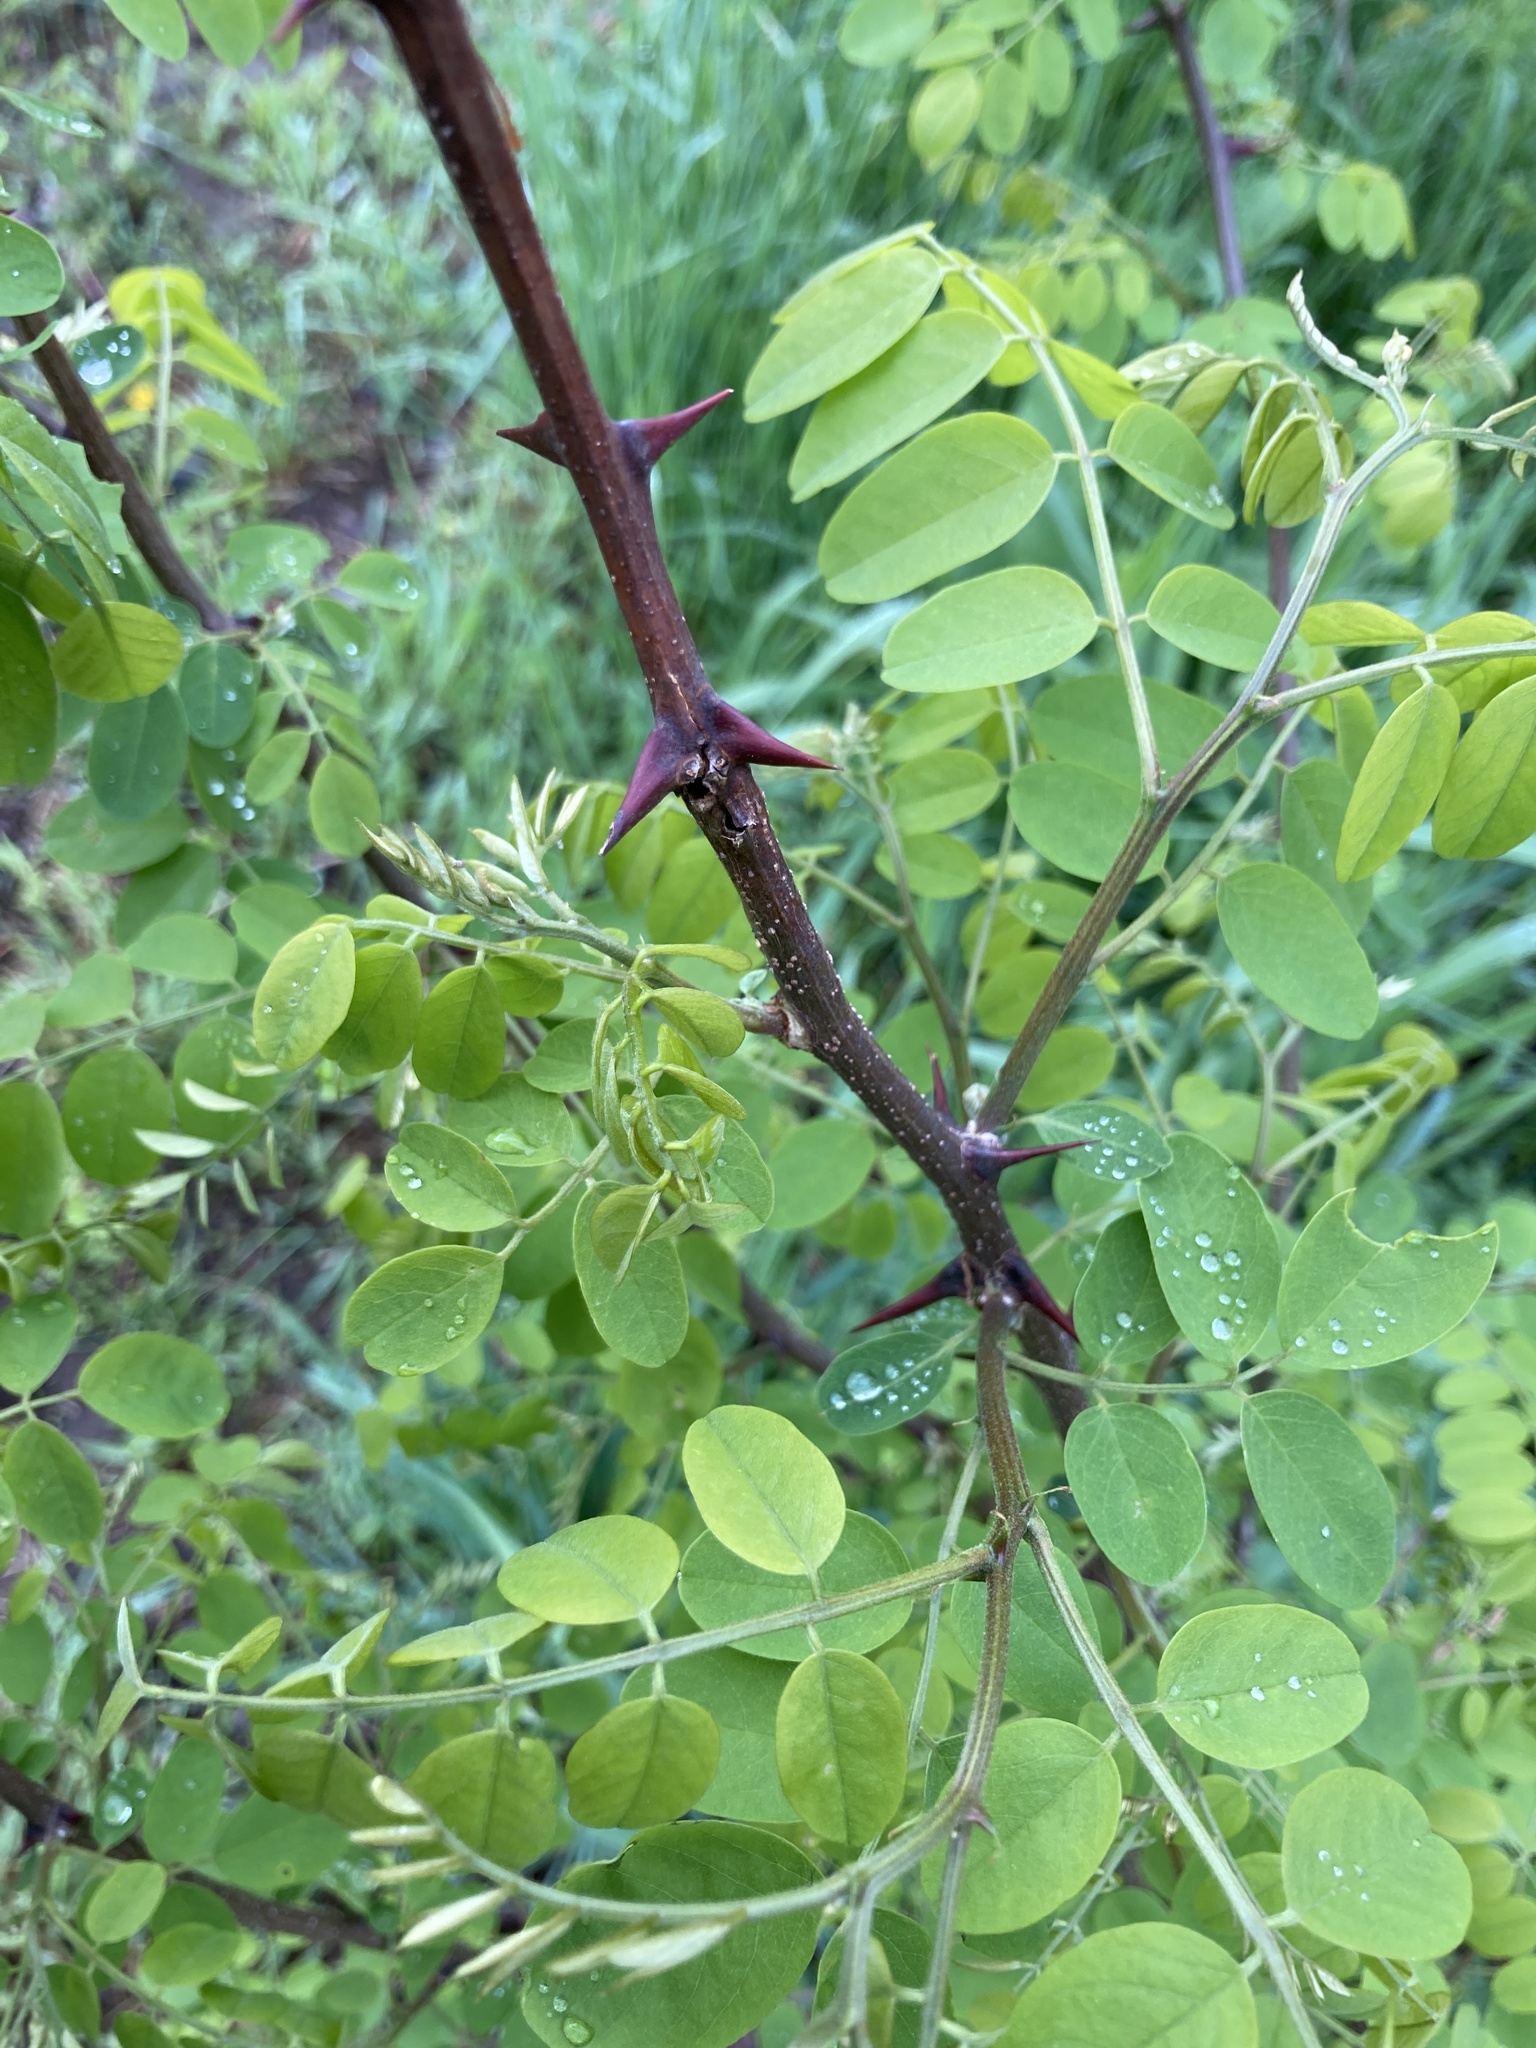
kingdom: Plantae
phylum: Tracheophyta
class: Magnoliopsida
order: Fabales
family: Fabaceae
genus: Robinia
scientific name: Robinia pseudoacacia
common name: Black locust
